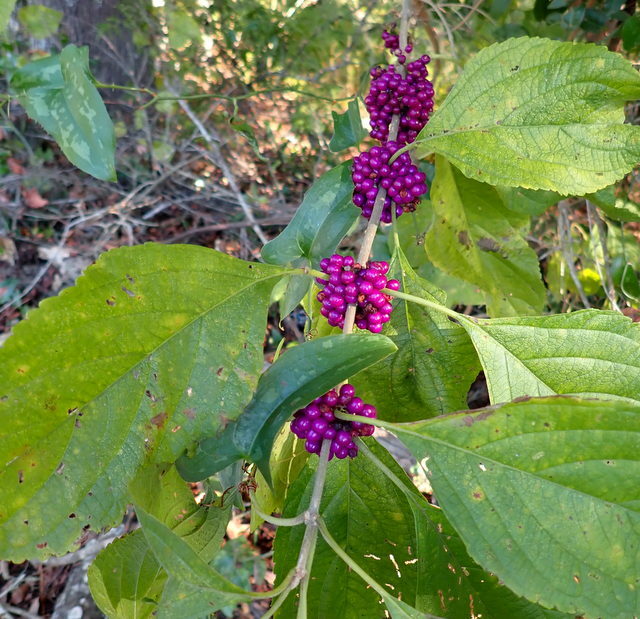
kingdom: Plantae
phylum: Tracheophyta
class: Magnoliopsida
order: Lamiales
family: Lamiaceae
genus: Callicarpa
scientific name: Callicarpa americana
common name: American beautyberry
